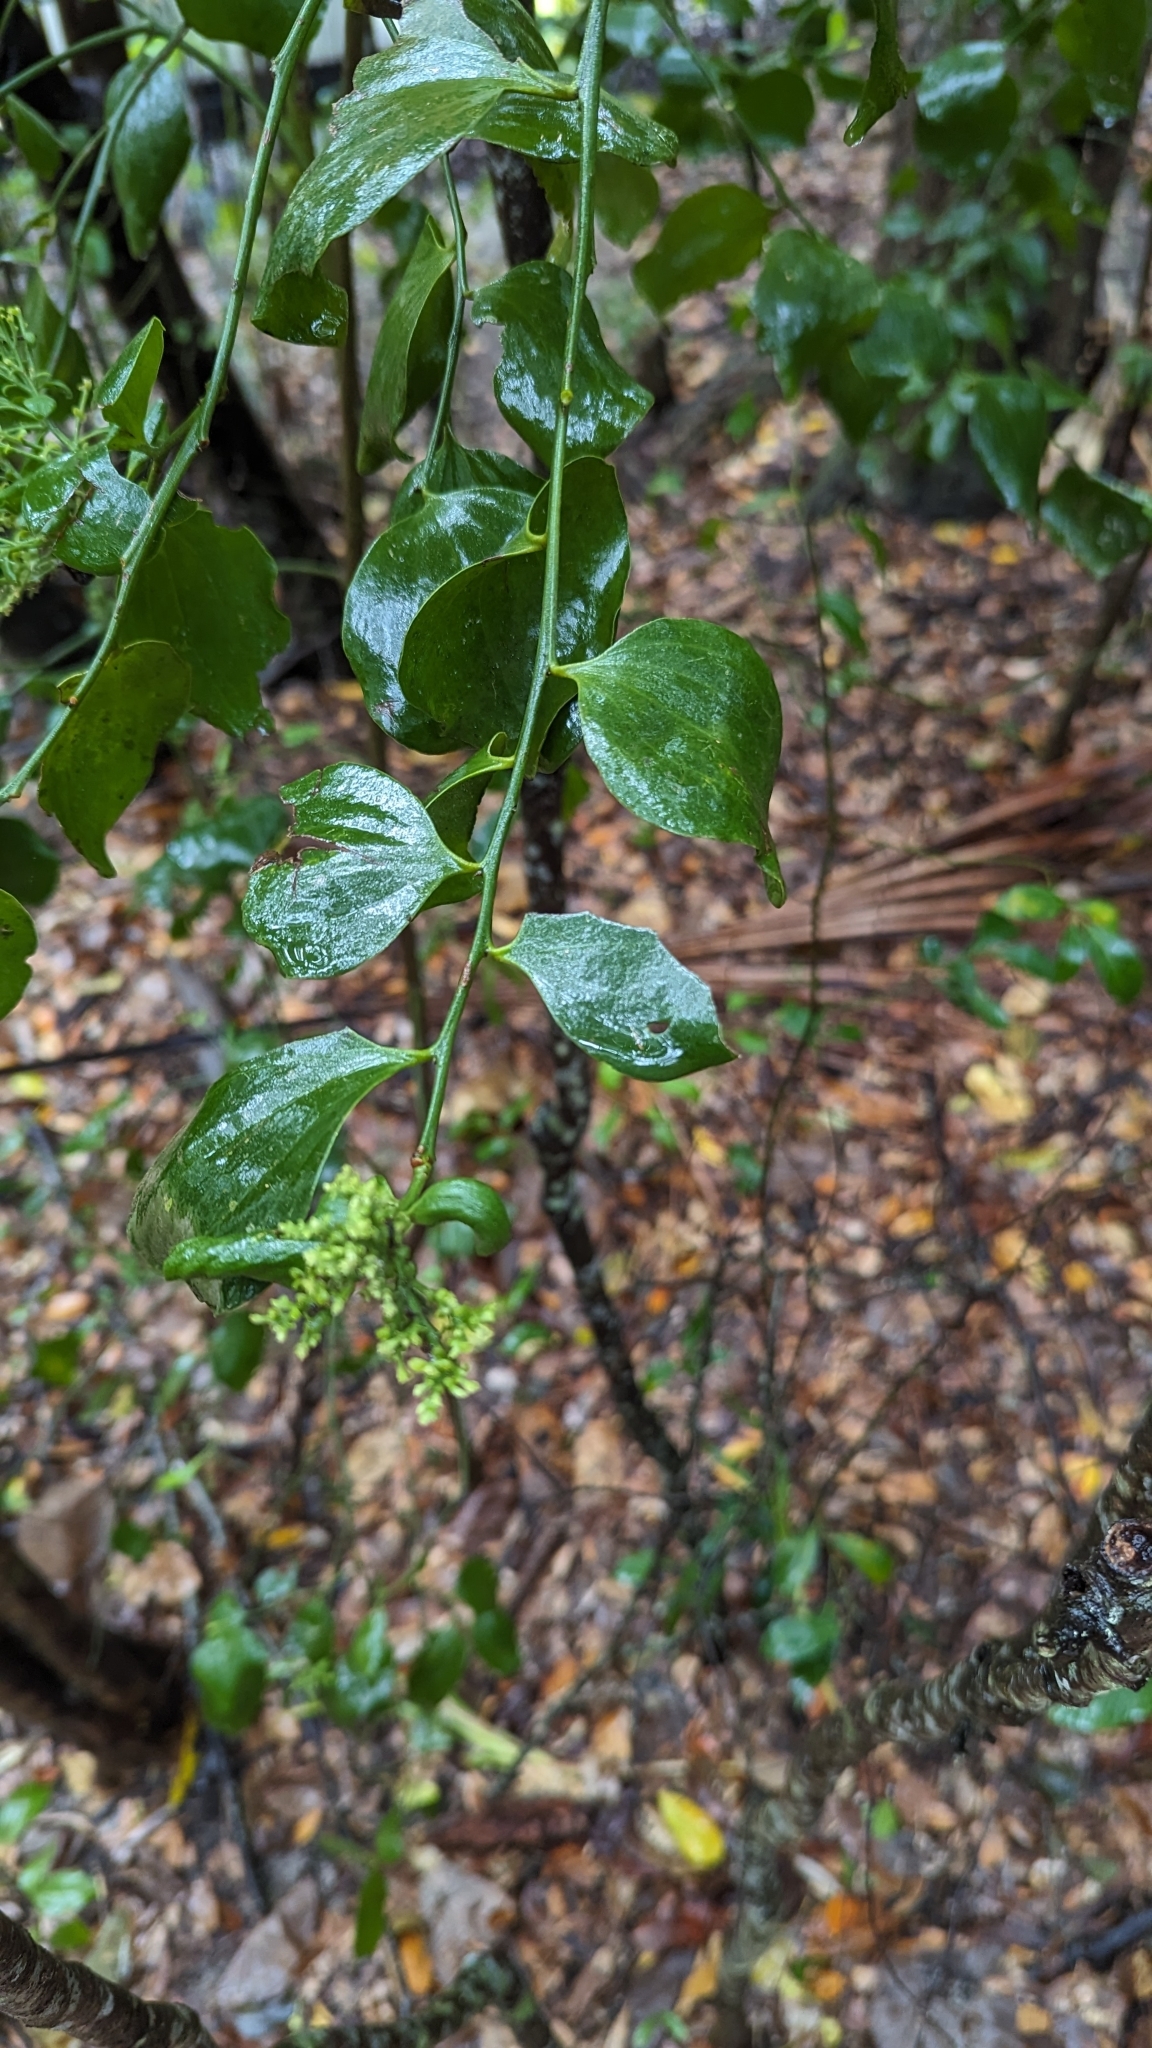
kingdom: Plantae
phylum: Tracheophyta
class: Magnoliopsida
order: Santalales
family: Santalaceae
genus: Exocarpos
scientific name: Exocarpos latifolius
